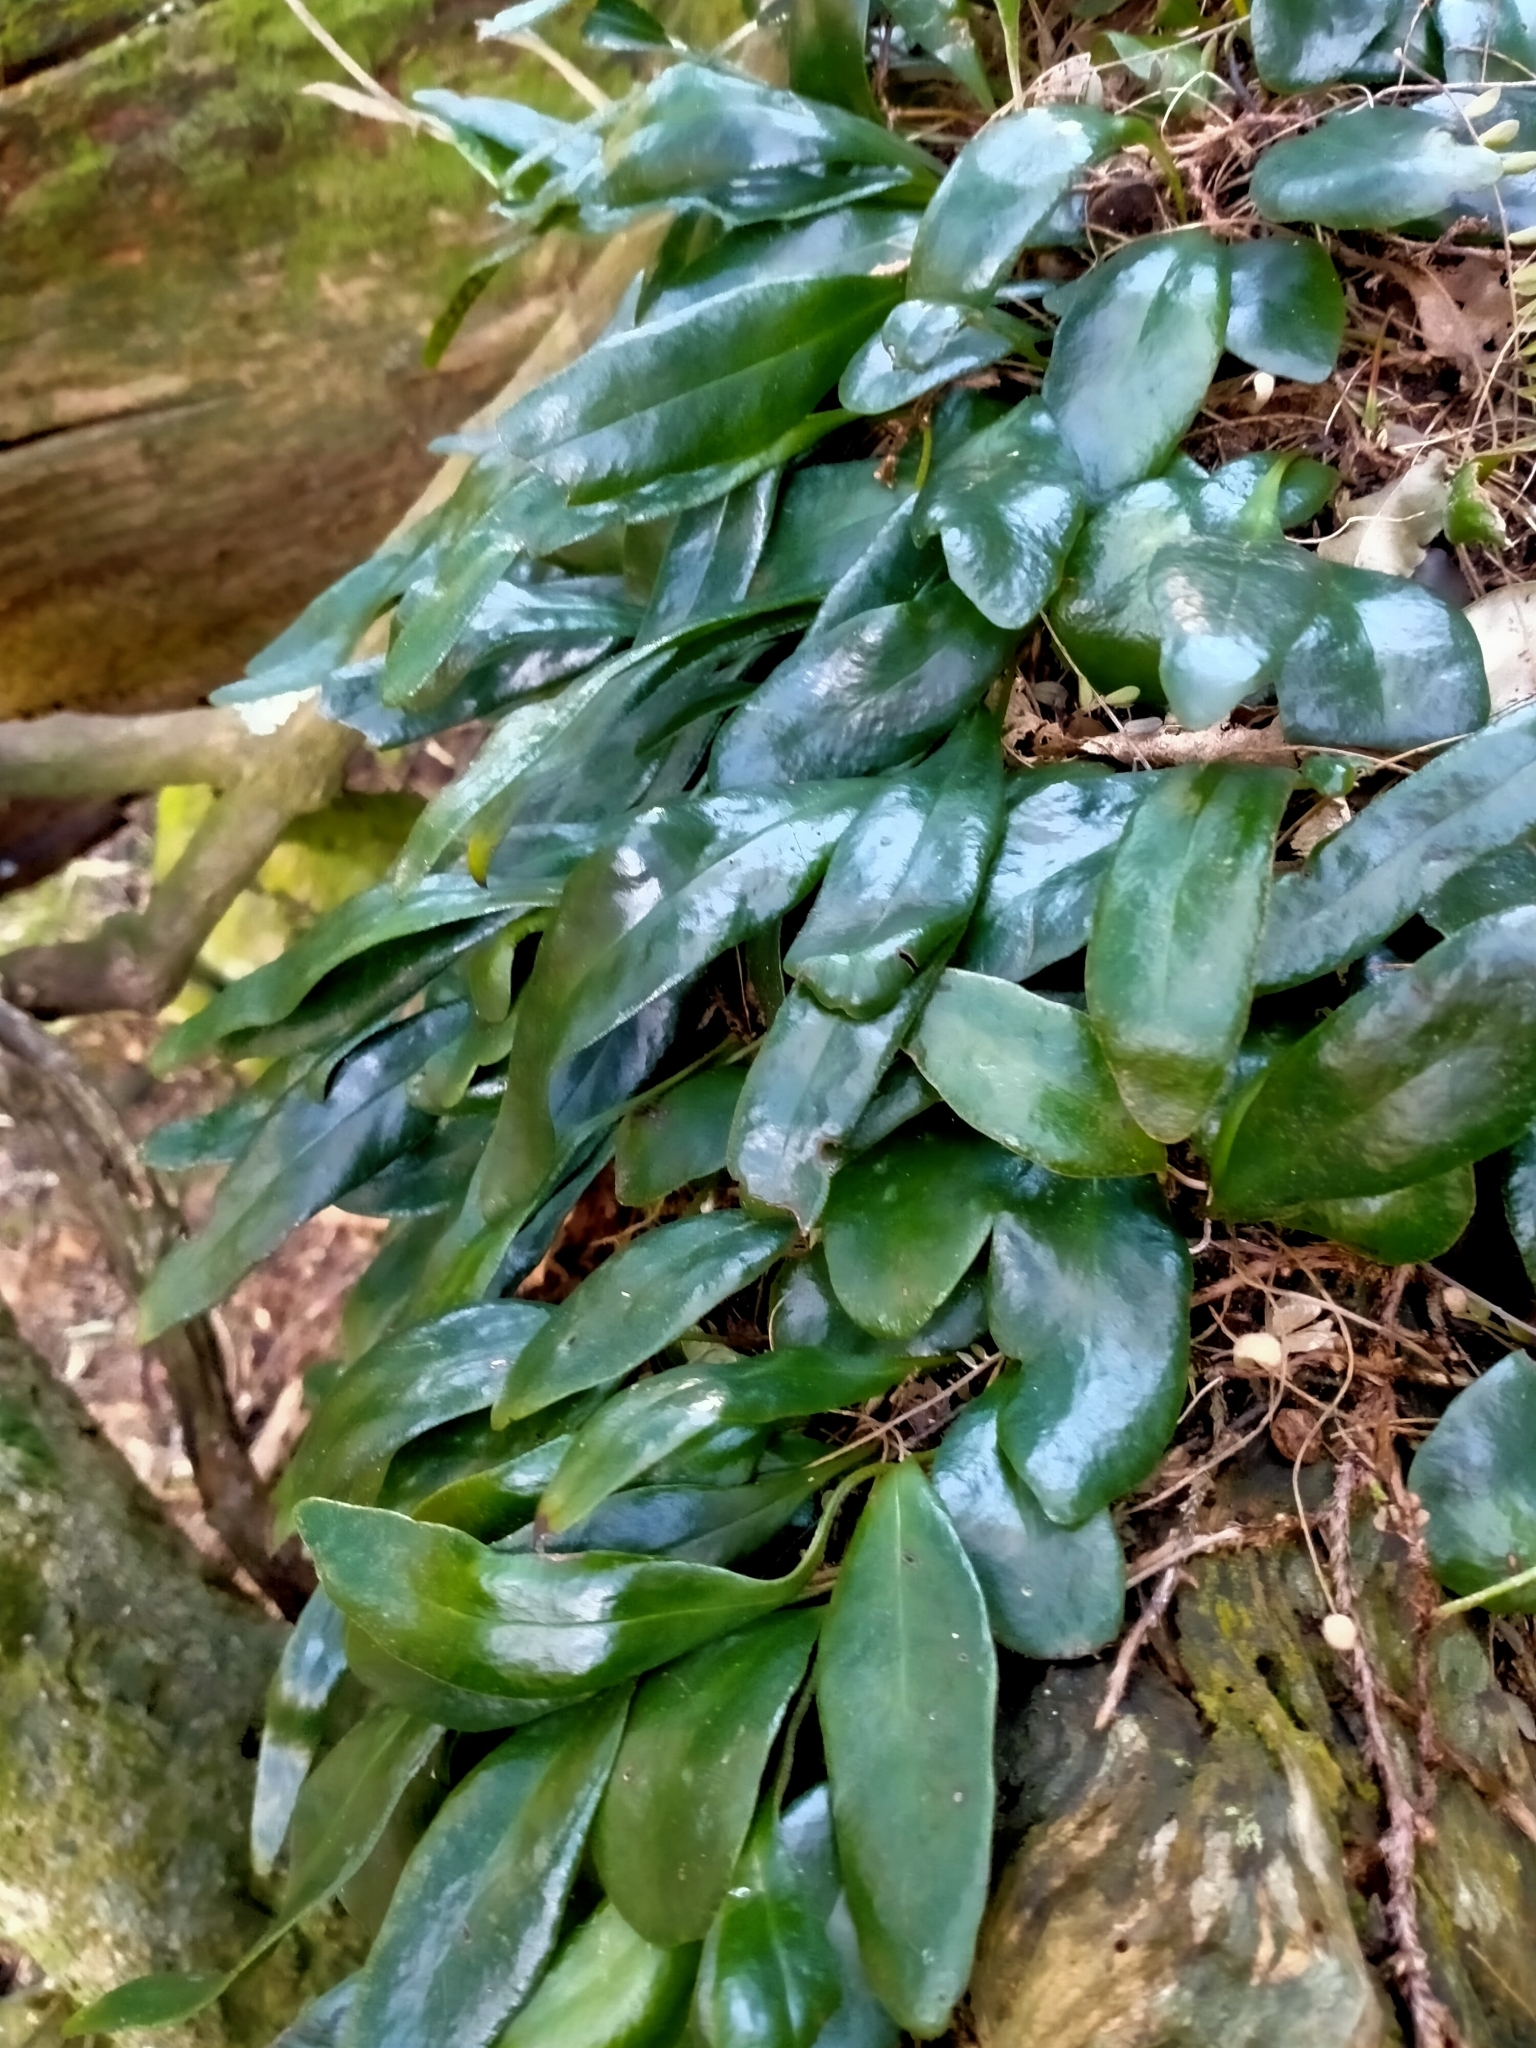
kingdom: Plantae
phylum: Tracheophyta
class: Polypodiopsida
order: Polypodiales
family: Polypodiaceae
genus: Pyrrosia
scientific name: Pyrrosia eleagnifolia
